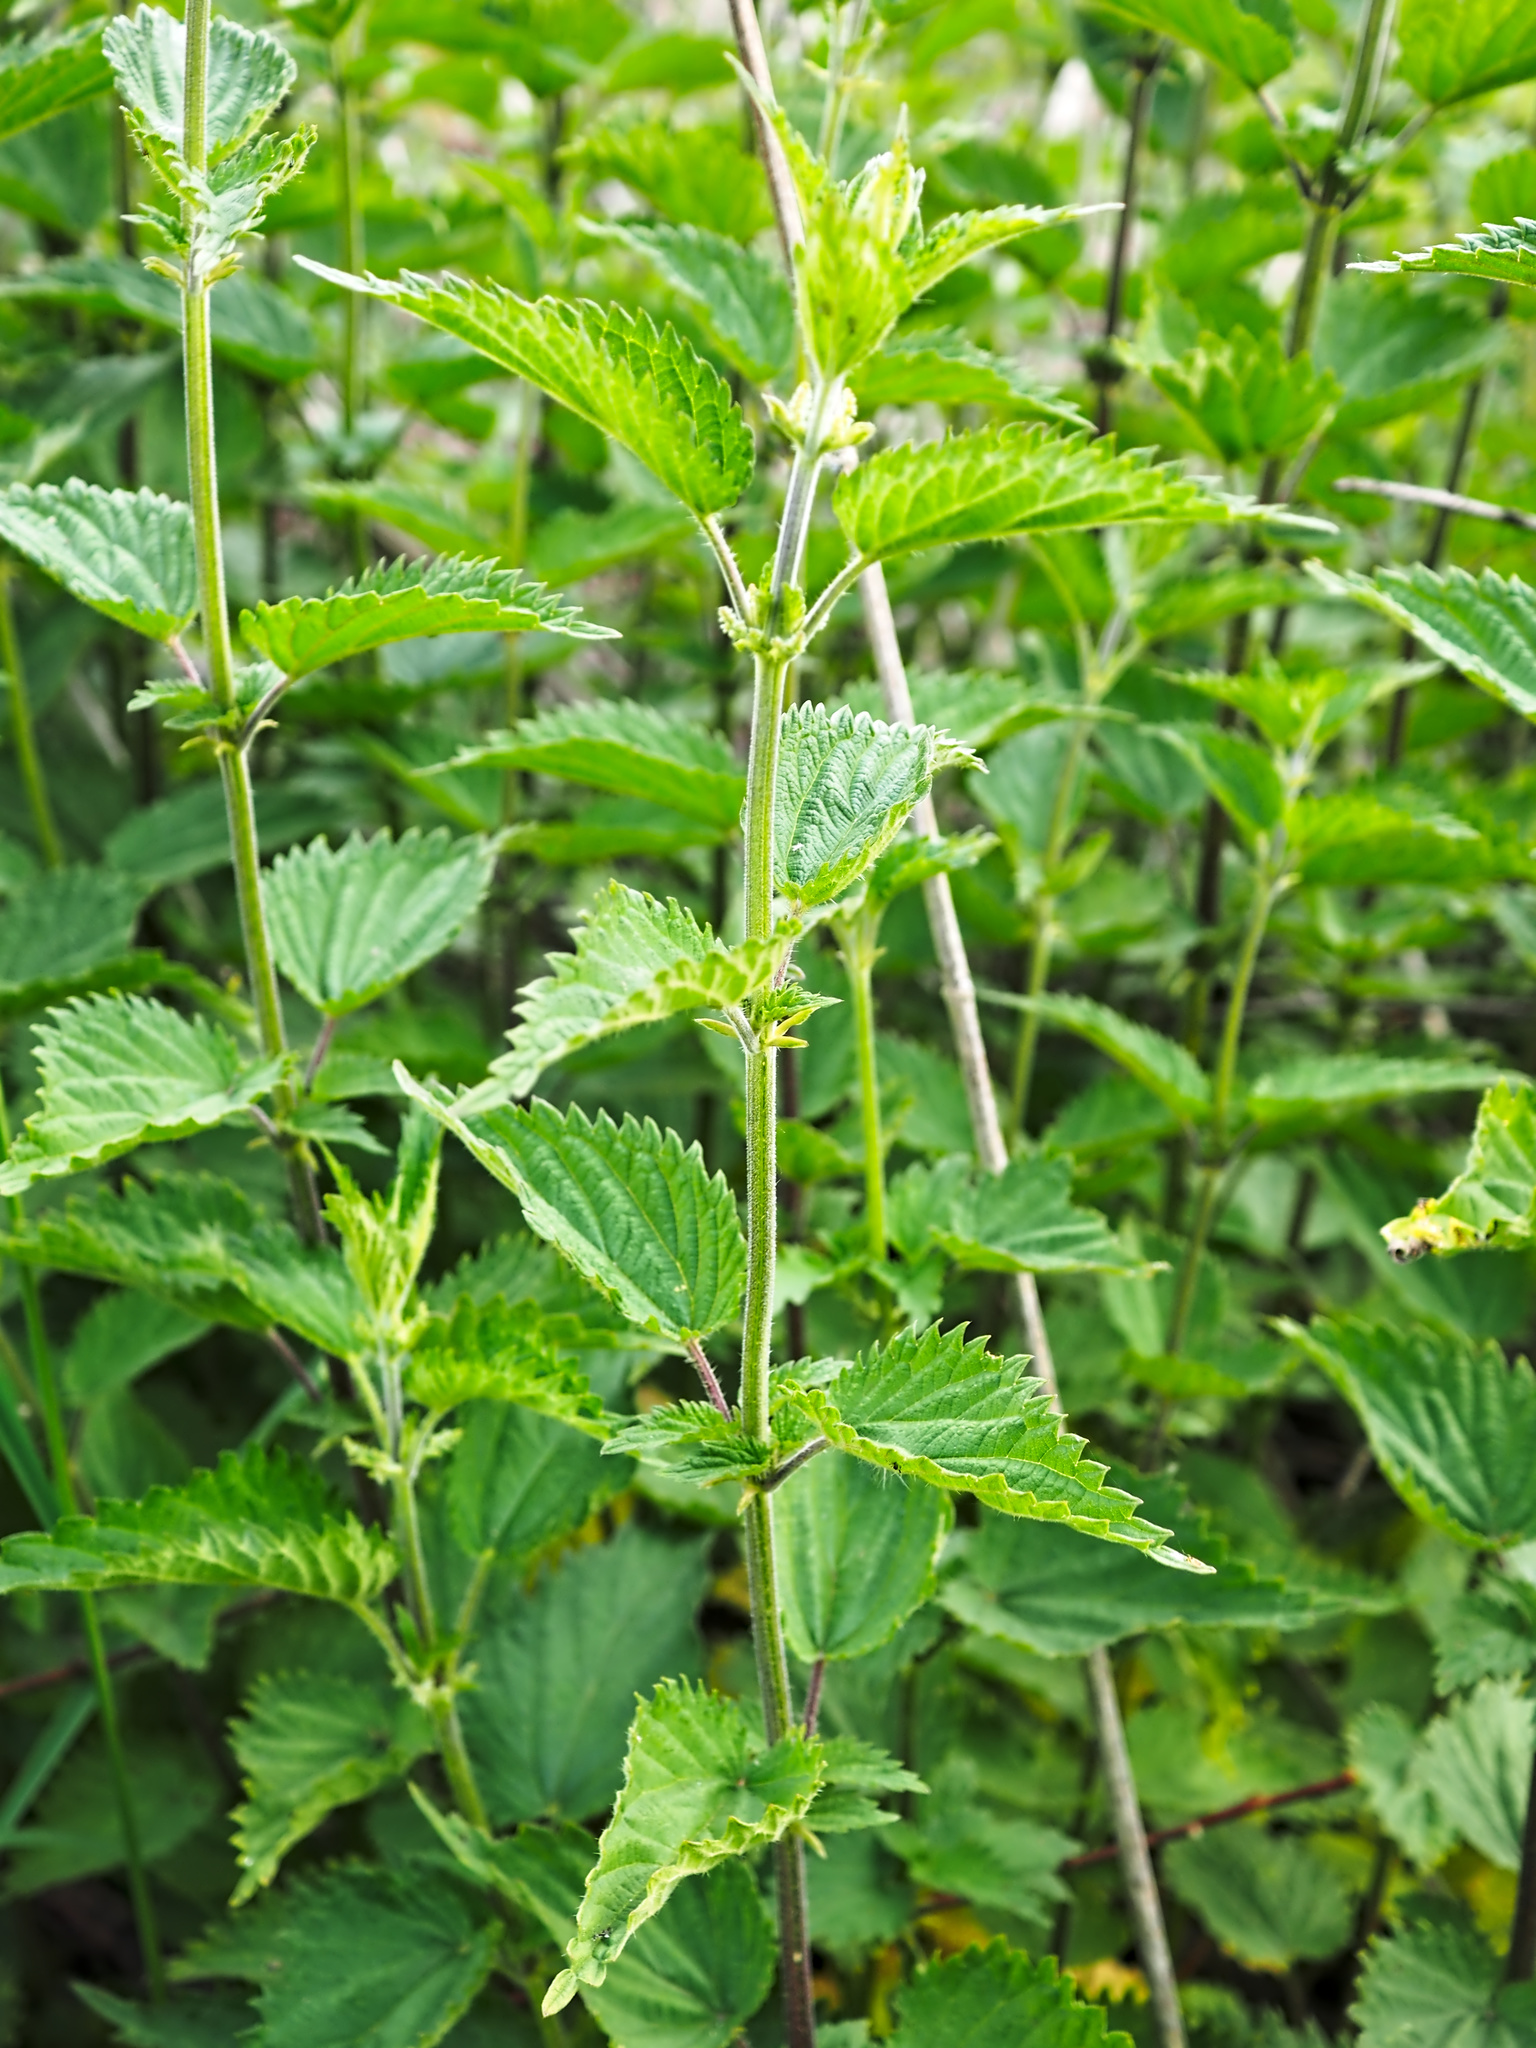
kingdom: Plantae
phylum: Tracheophyta
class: Magnoliopsida
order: Rosales
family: Urticaceae
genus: Urtica
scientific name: Urtica dioica
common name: Common nettle
